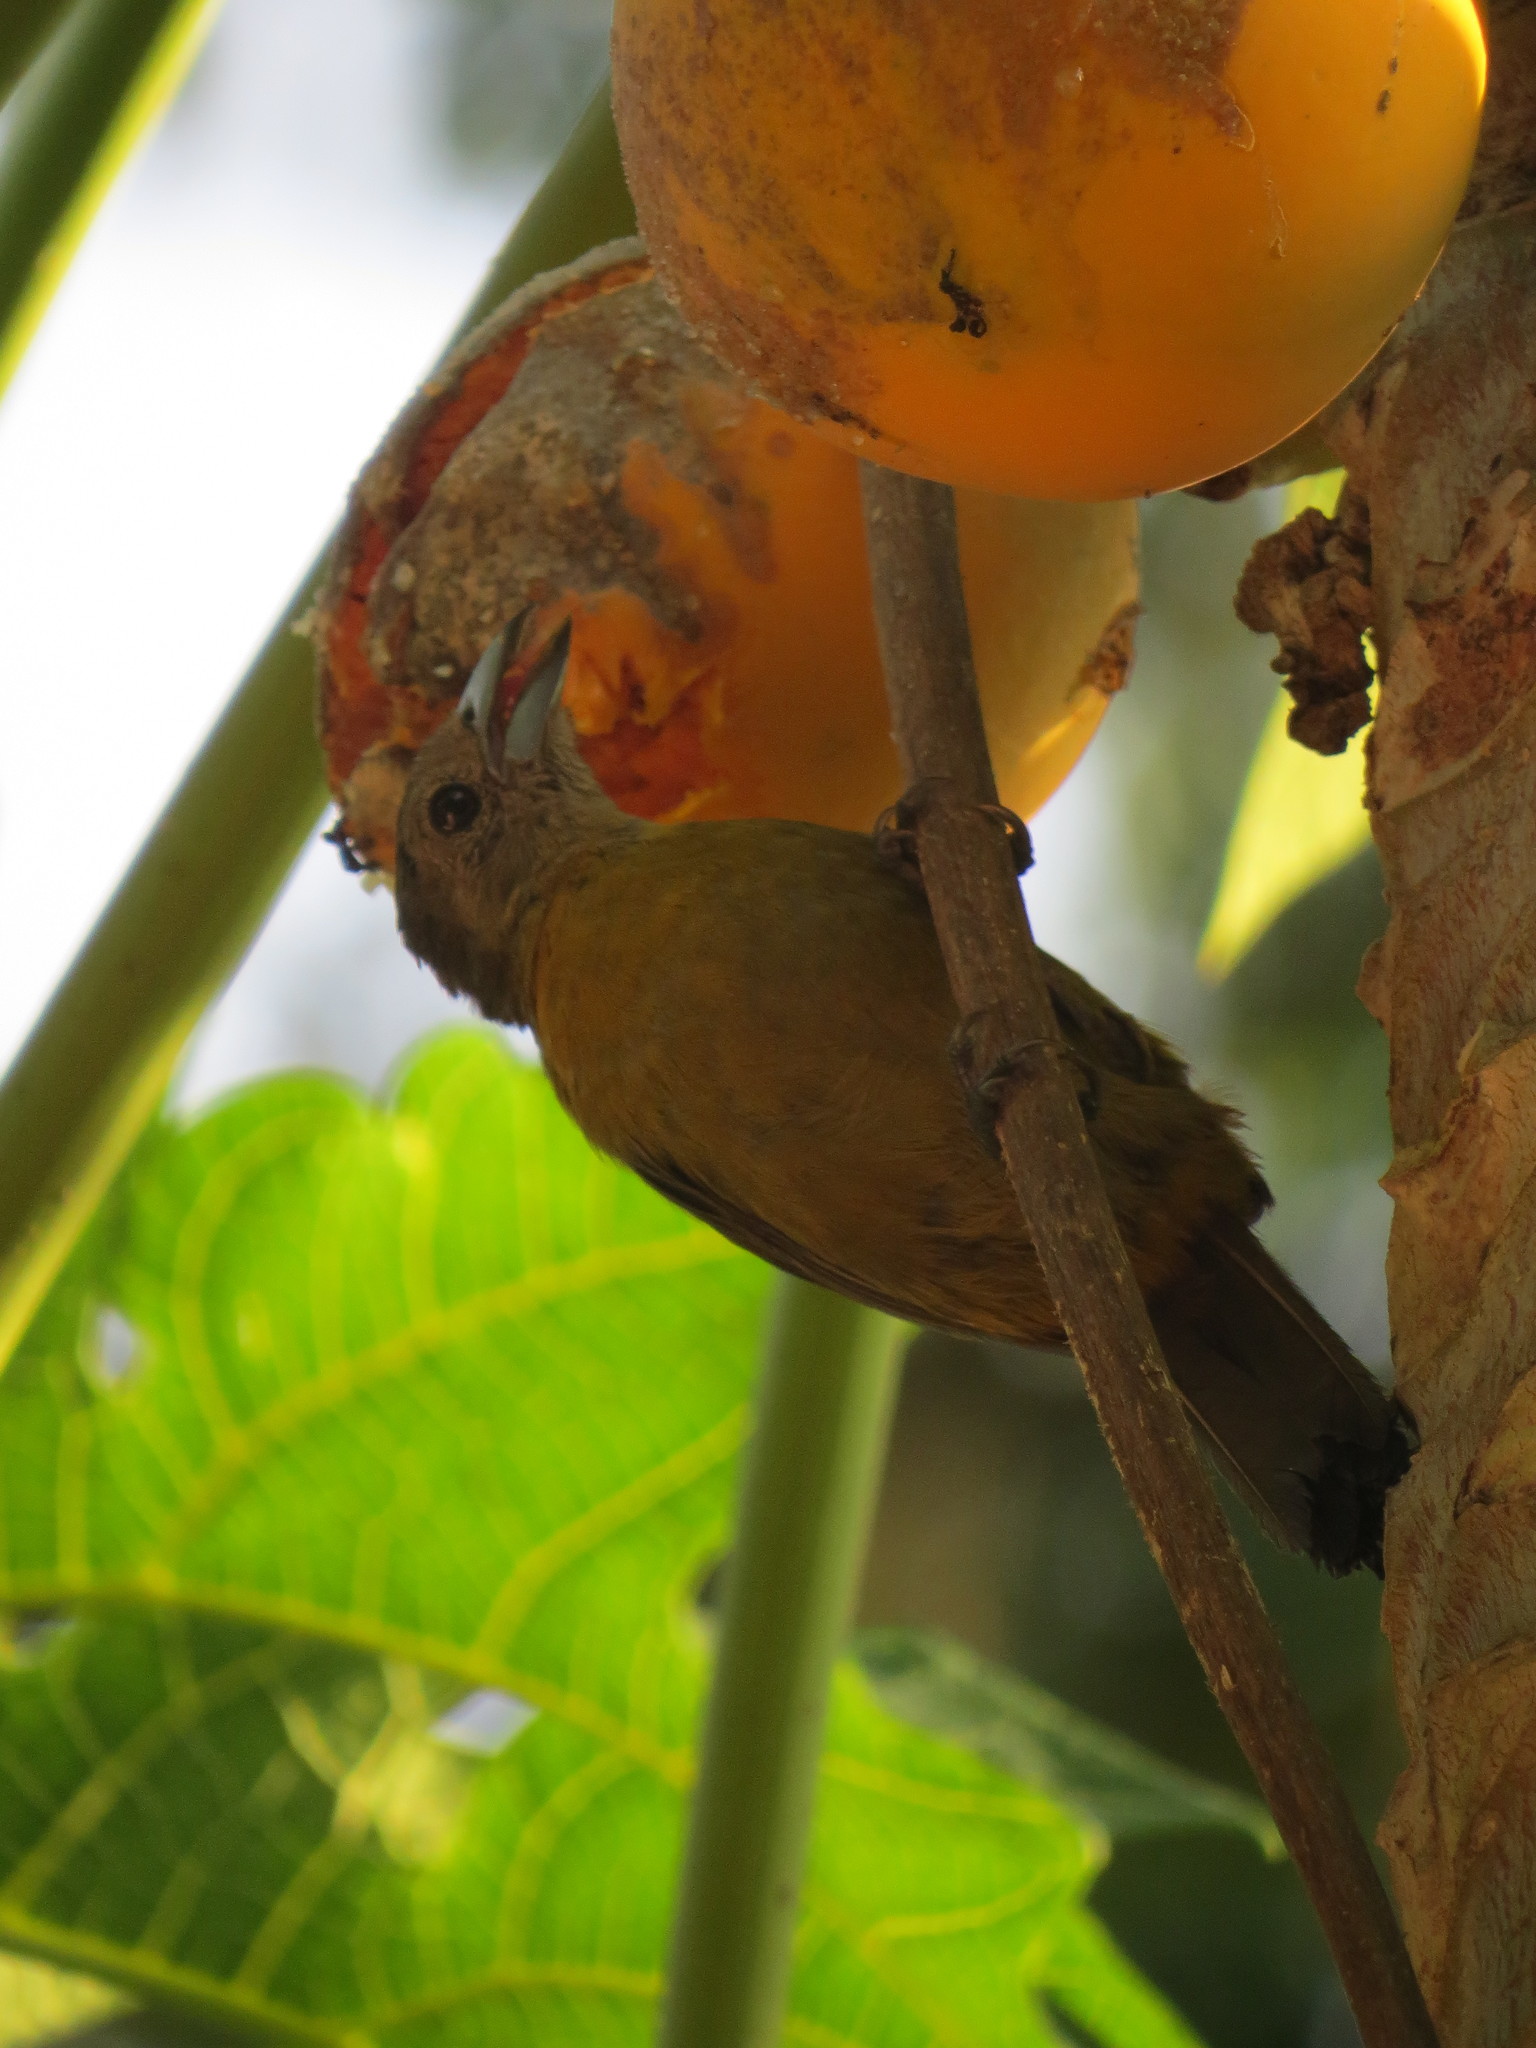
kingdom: Animalia
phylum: Chordata
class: Aves
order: Passeriformes
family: Thraupidae
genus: Ramphocelus
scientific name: Ramphocelus passerinii
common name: Passerini's tanager
